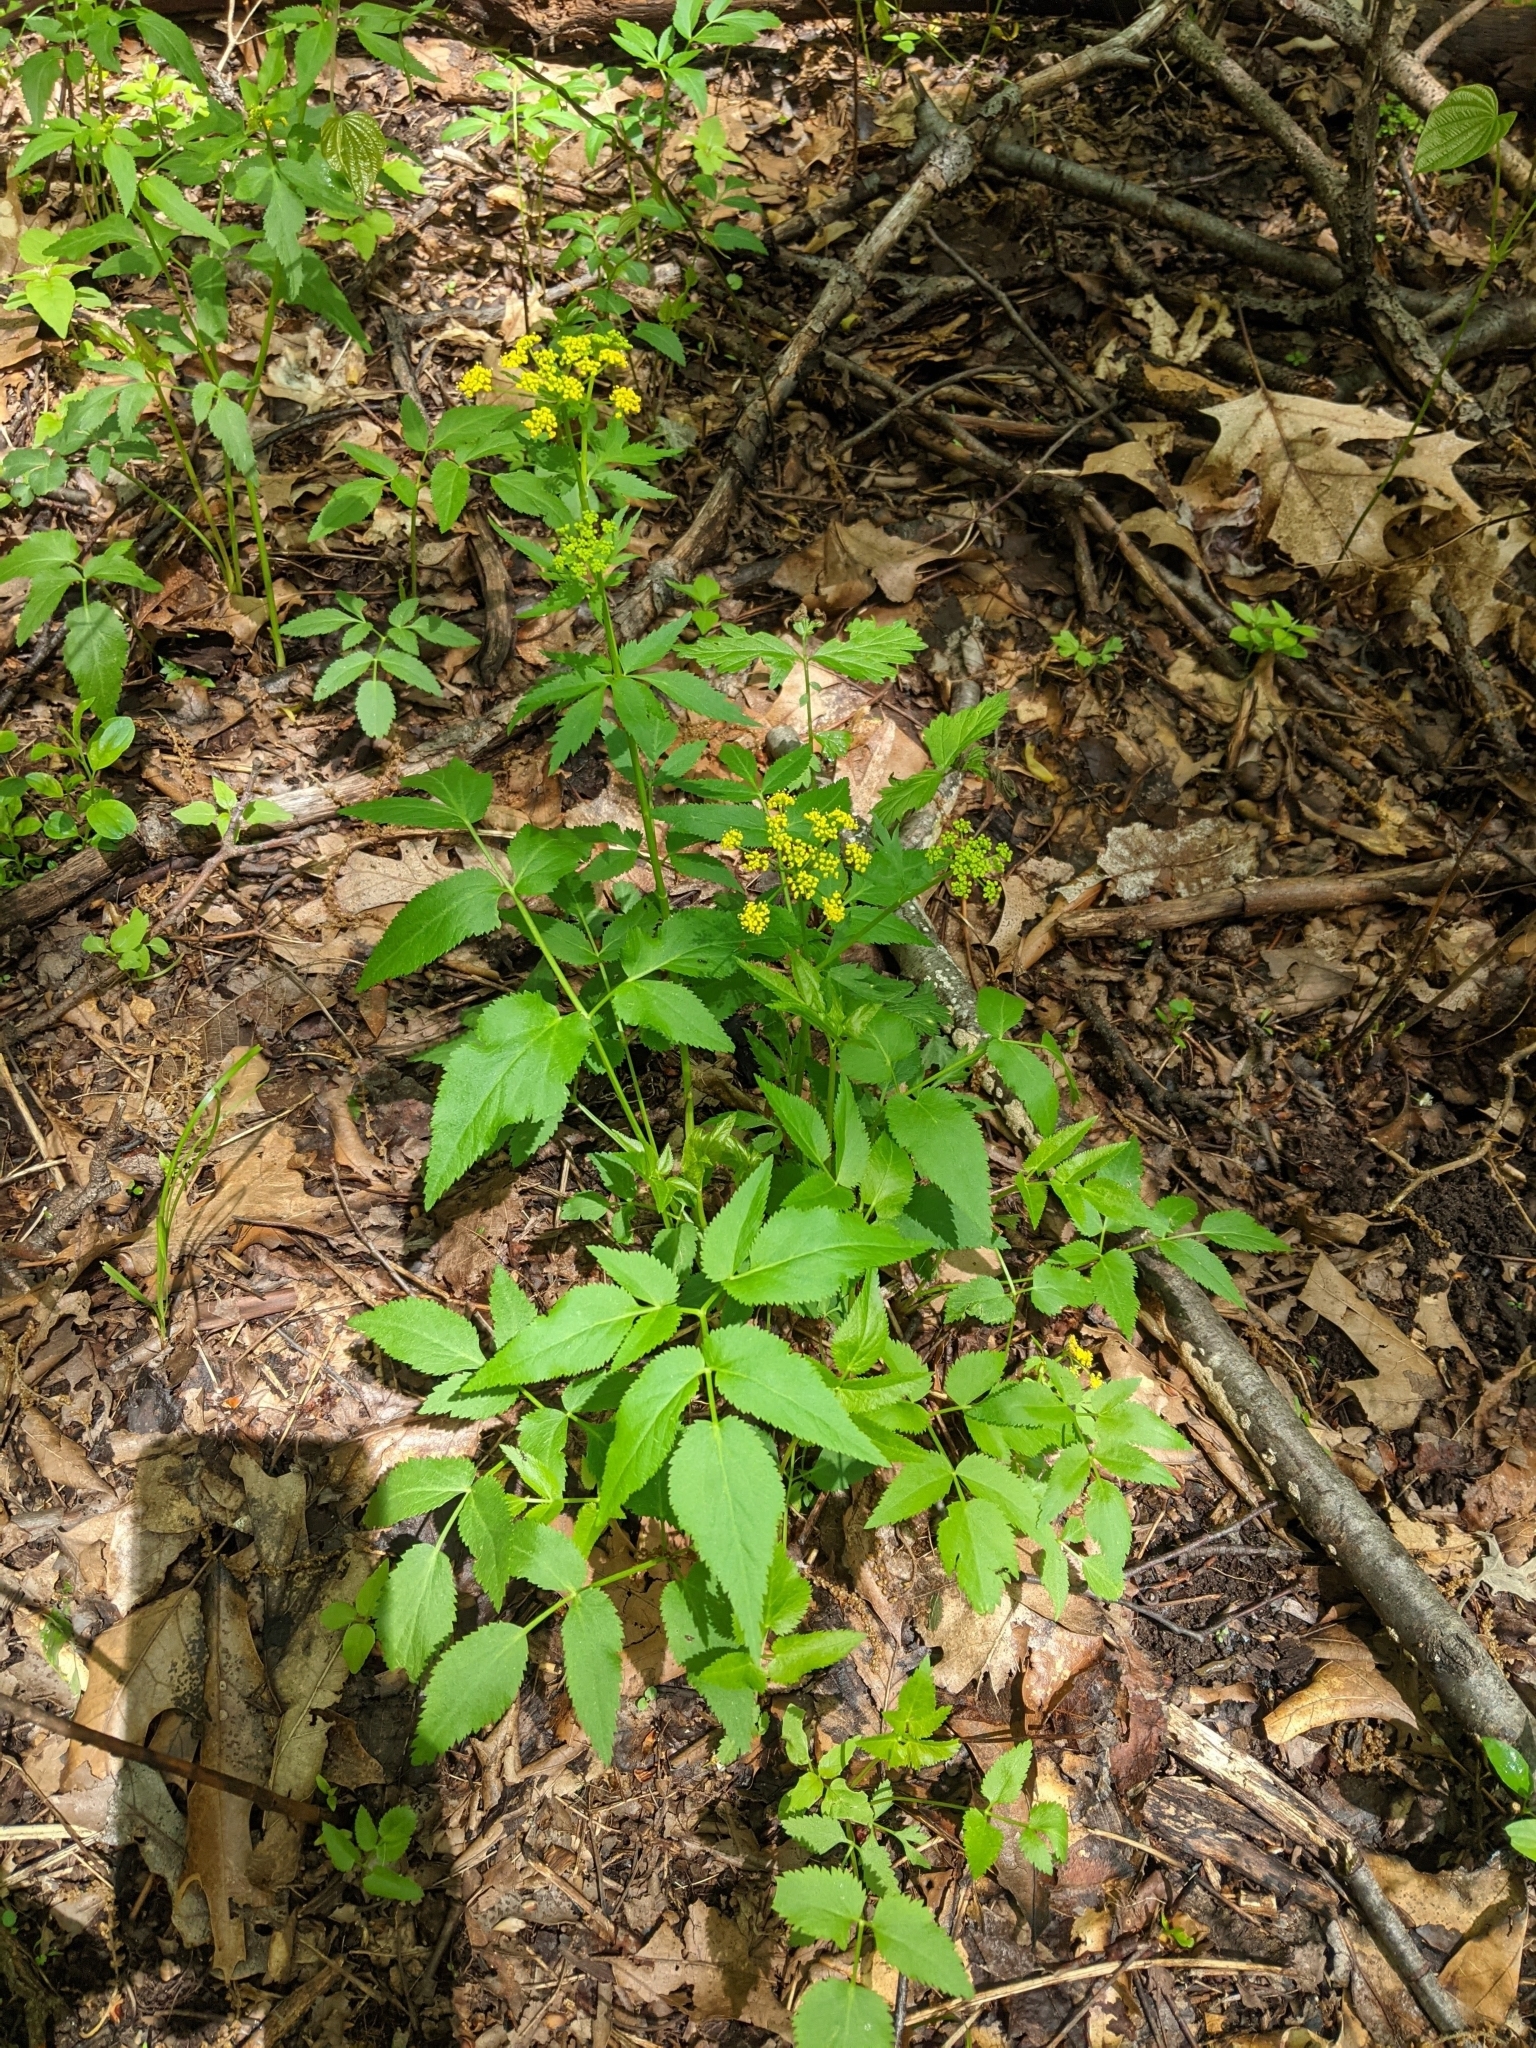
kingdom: Plantae
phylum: Tracheophyta
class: Magnoliopsida
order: Apiales
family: Apiaceae
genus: Zizia
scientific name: Zizia aurea
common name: Golden alexanders
